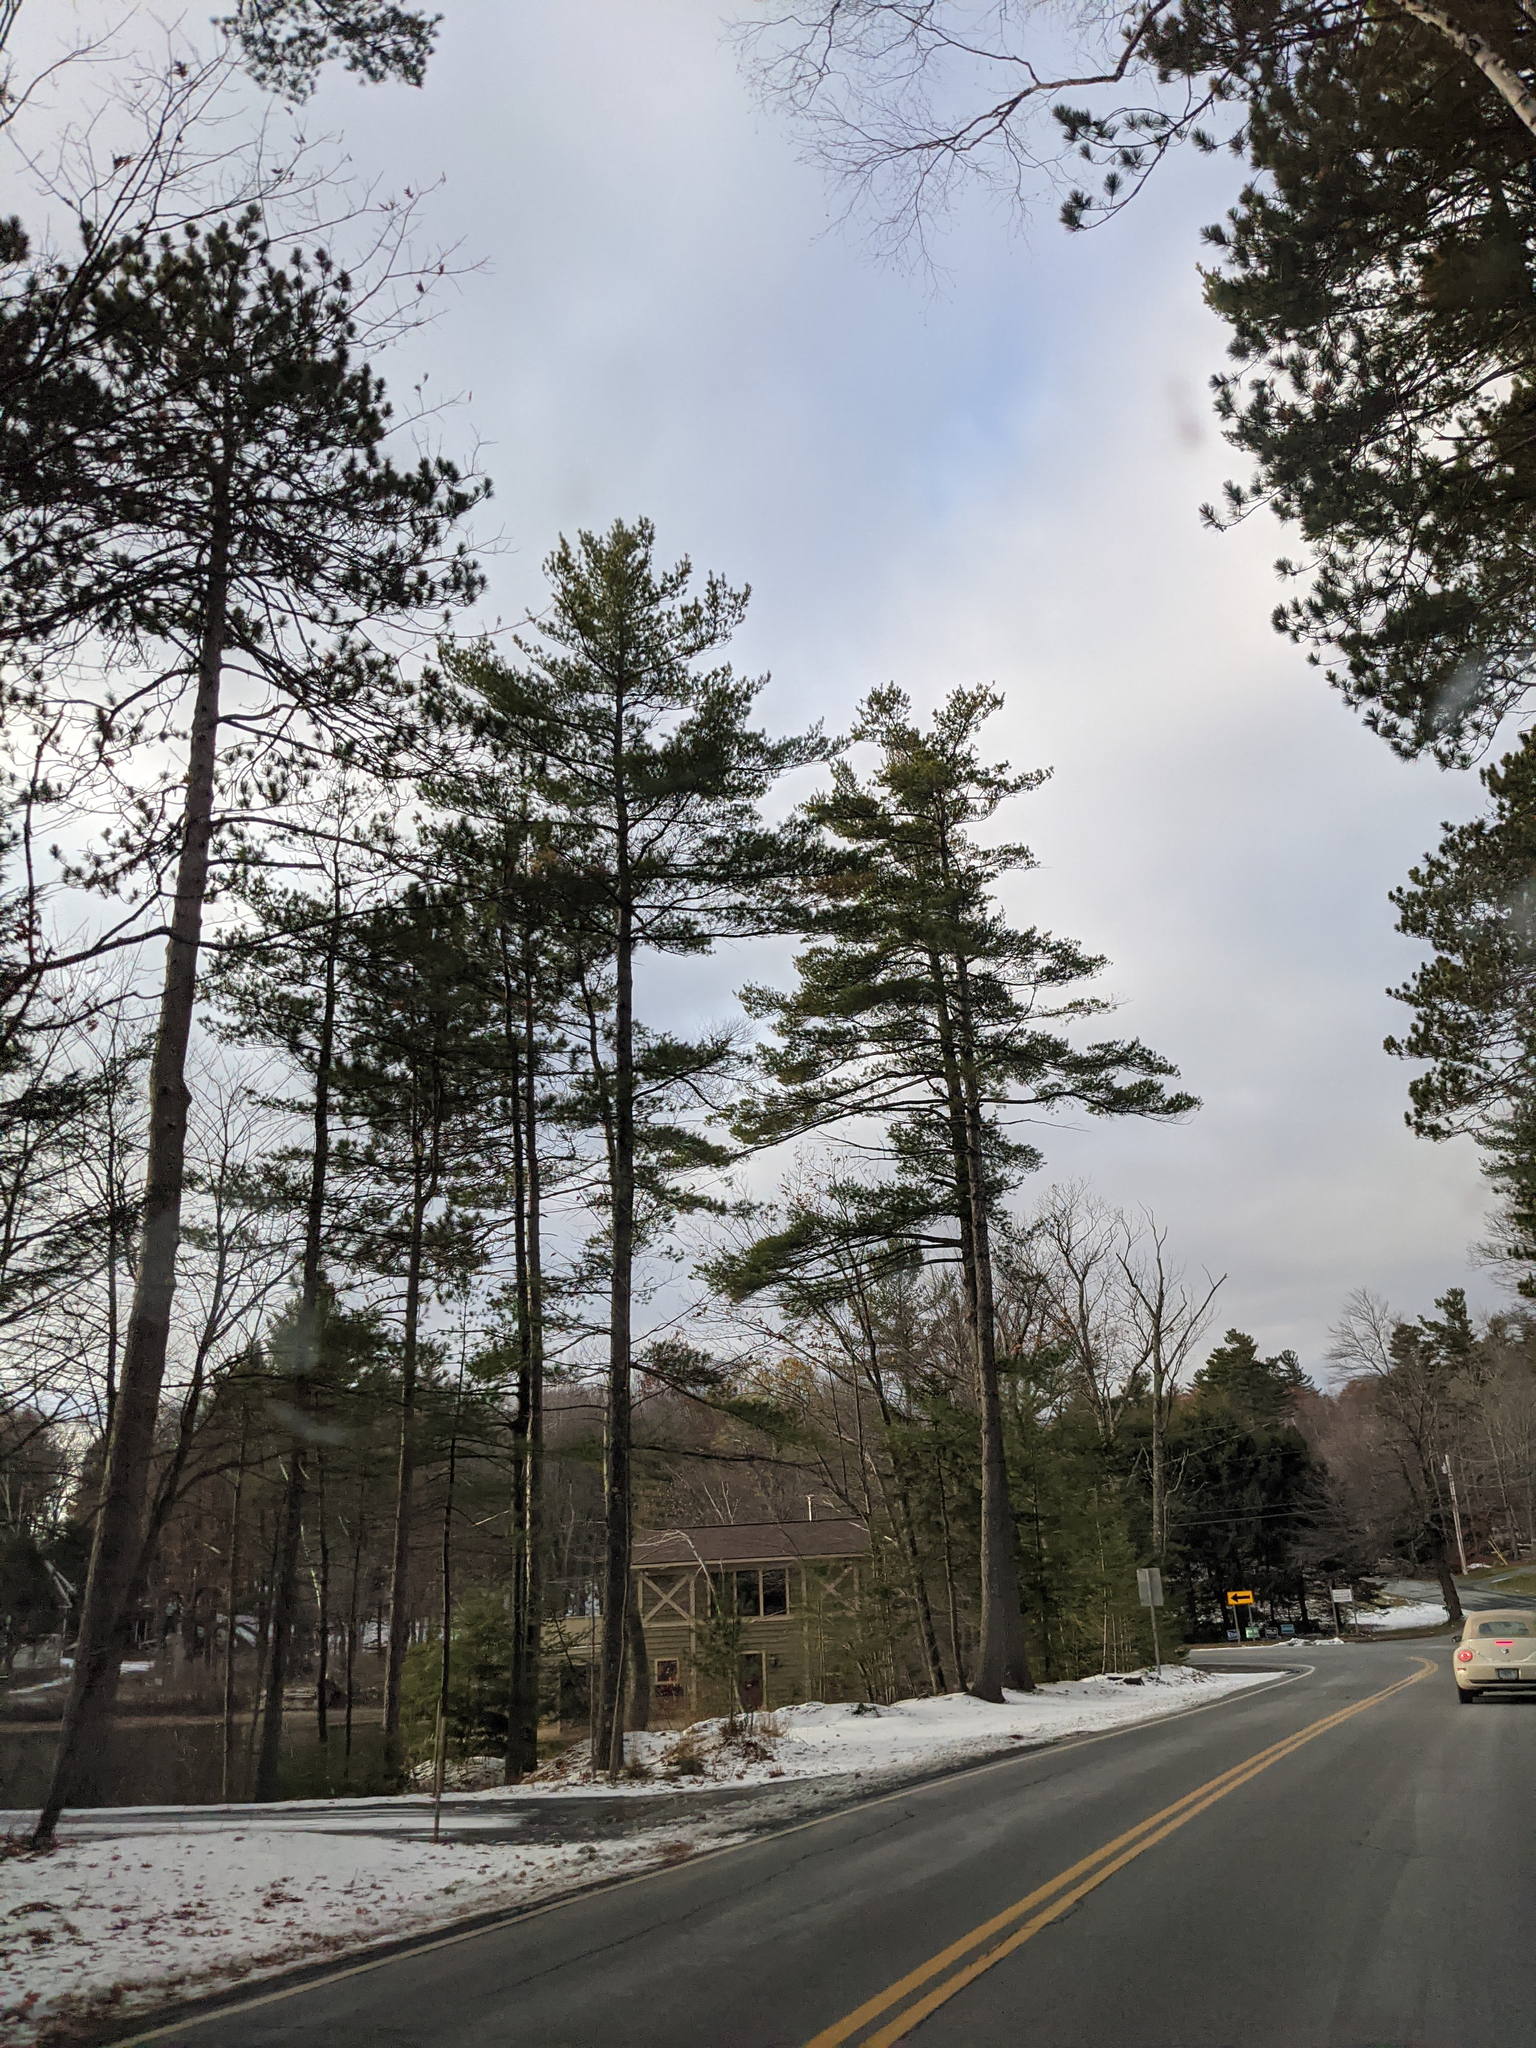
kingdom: Plantae
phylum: Tracheophyta
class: Pinopsida
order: Pinales
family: Pinaceae
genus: Pinus
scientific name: Pinus strobus
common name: Weymouth pine
